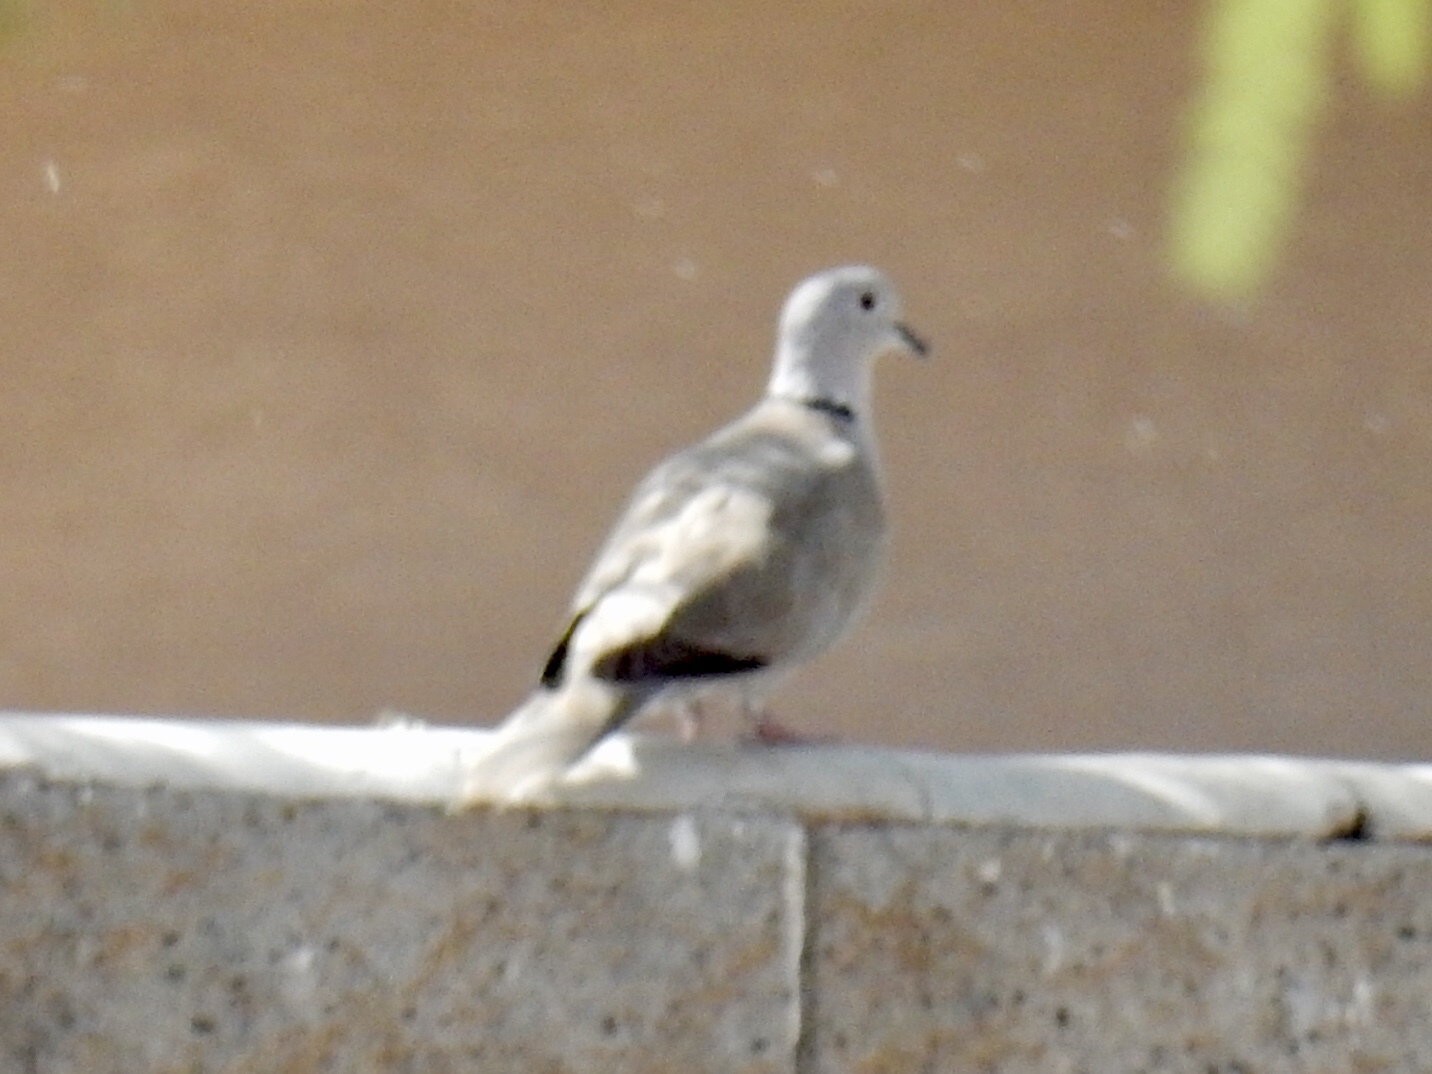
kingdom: Animalia
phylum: Chordata
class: Aves
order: Columbiformes
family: Columbidae
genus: Streptopelia
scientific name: Streptopelia decaocto
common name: Eurasian collared dove
